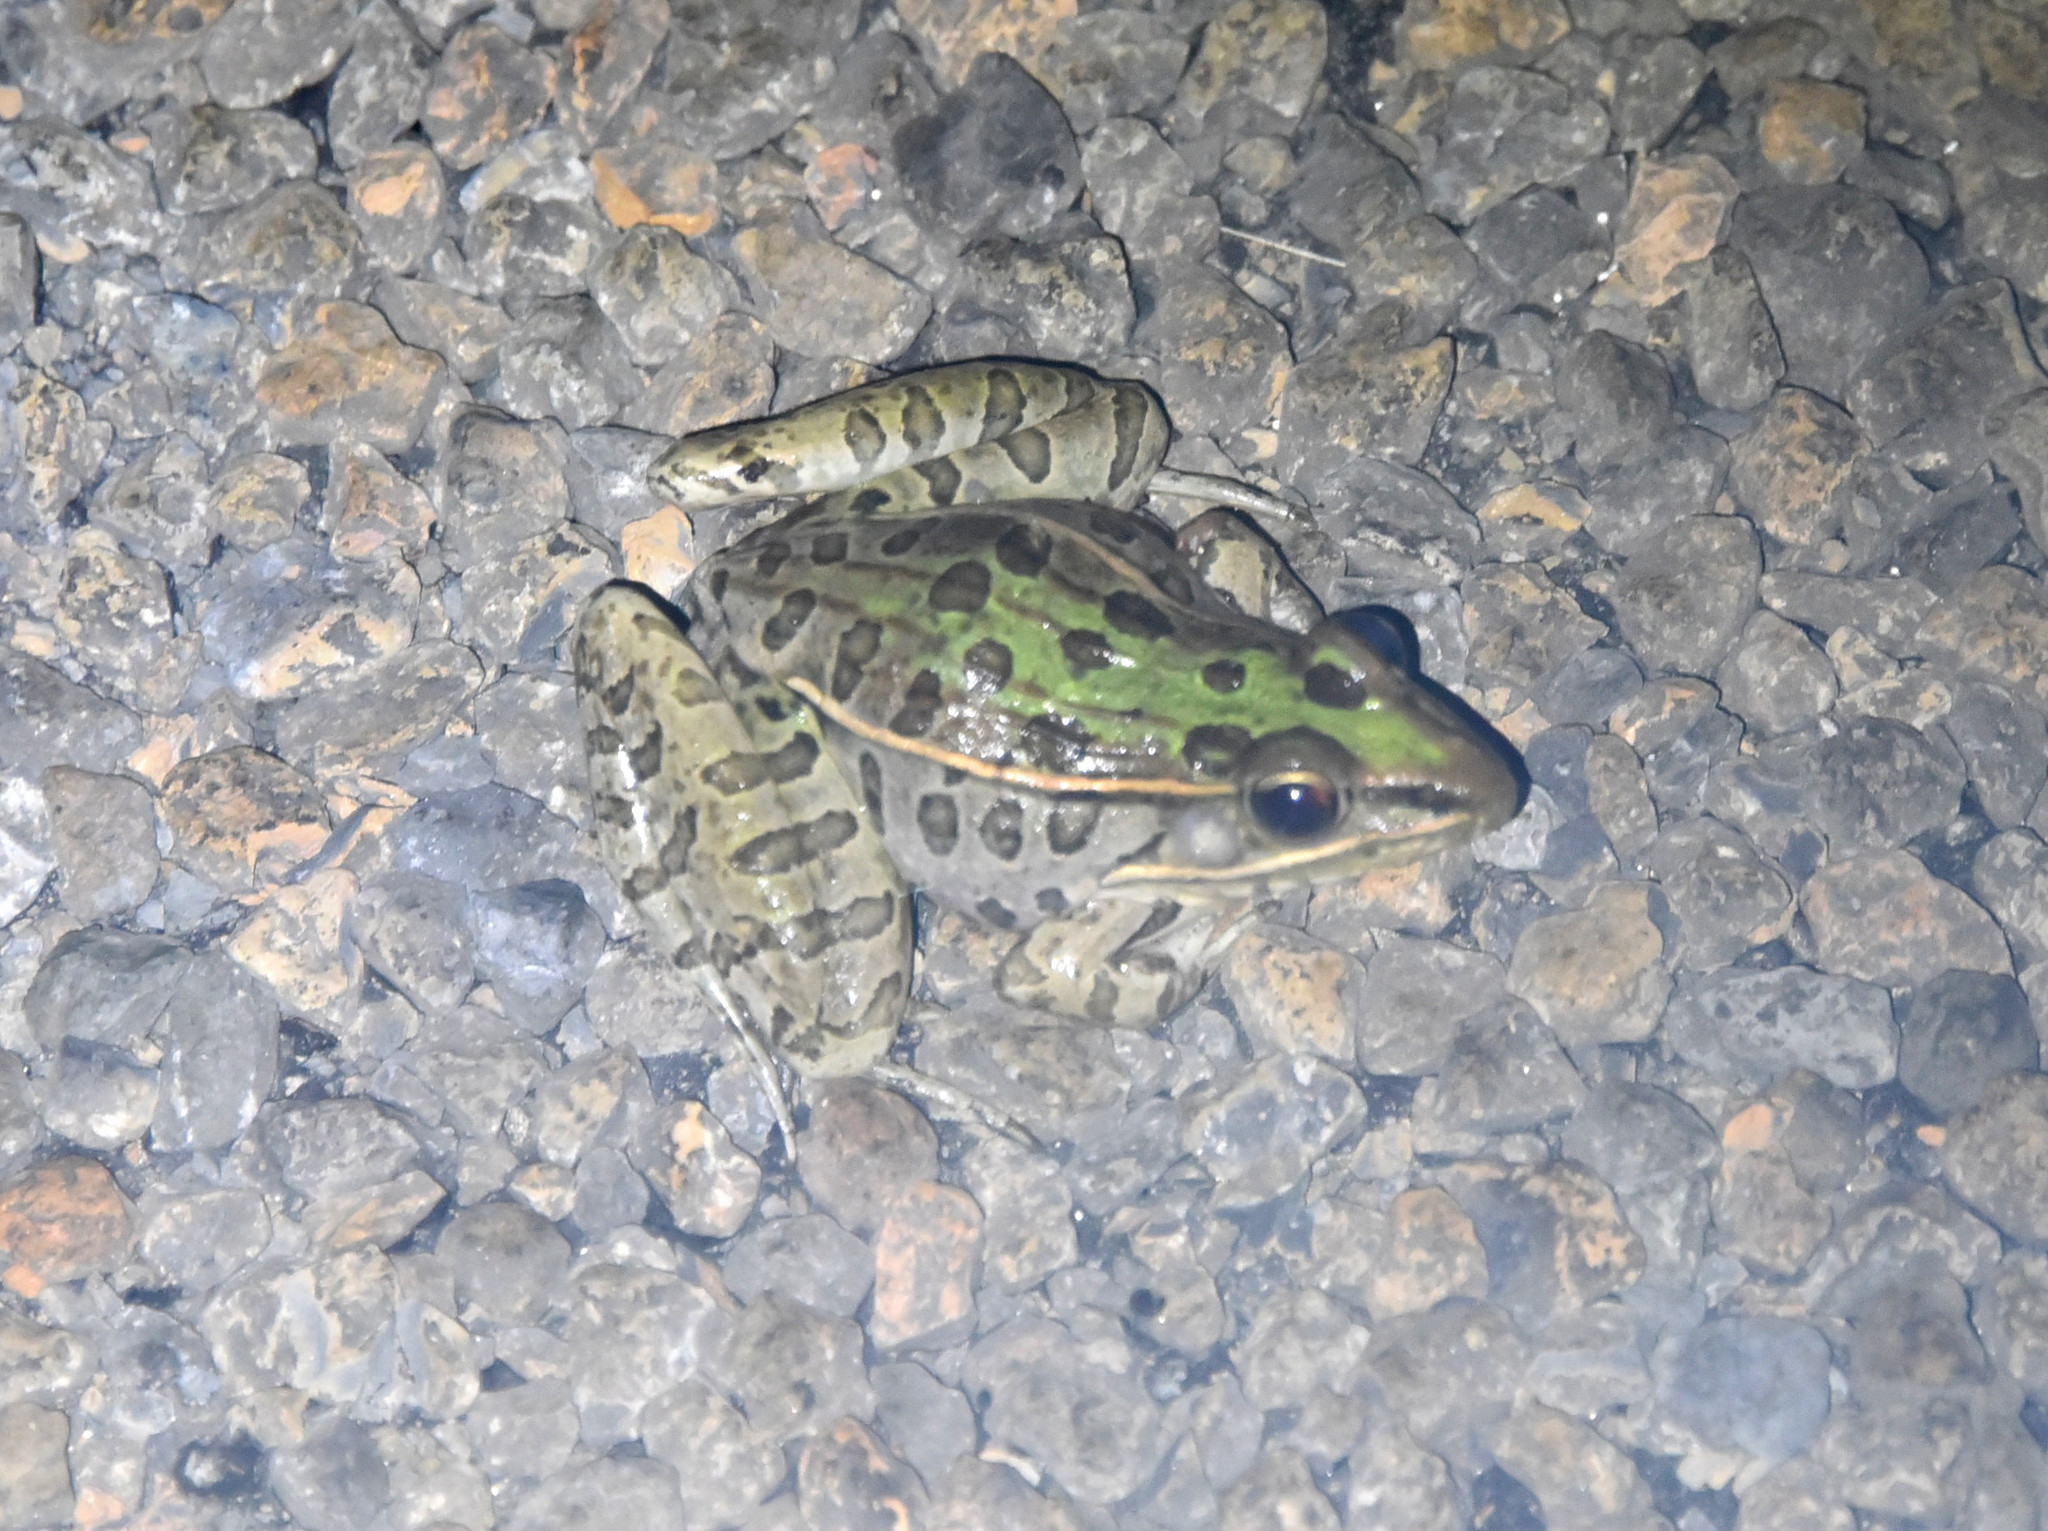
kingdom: Animalia
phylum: Chordata
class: Amphibia
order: Anura
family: Ranidae
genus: Lithobates
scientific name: Lithobates sphenocephalus
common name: Southern leopard frog
